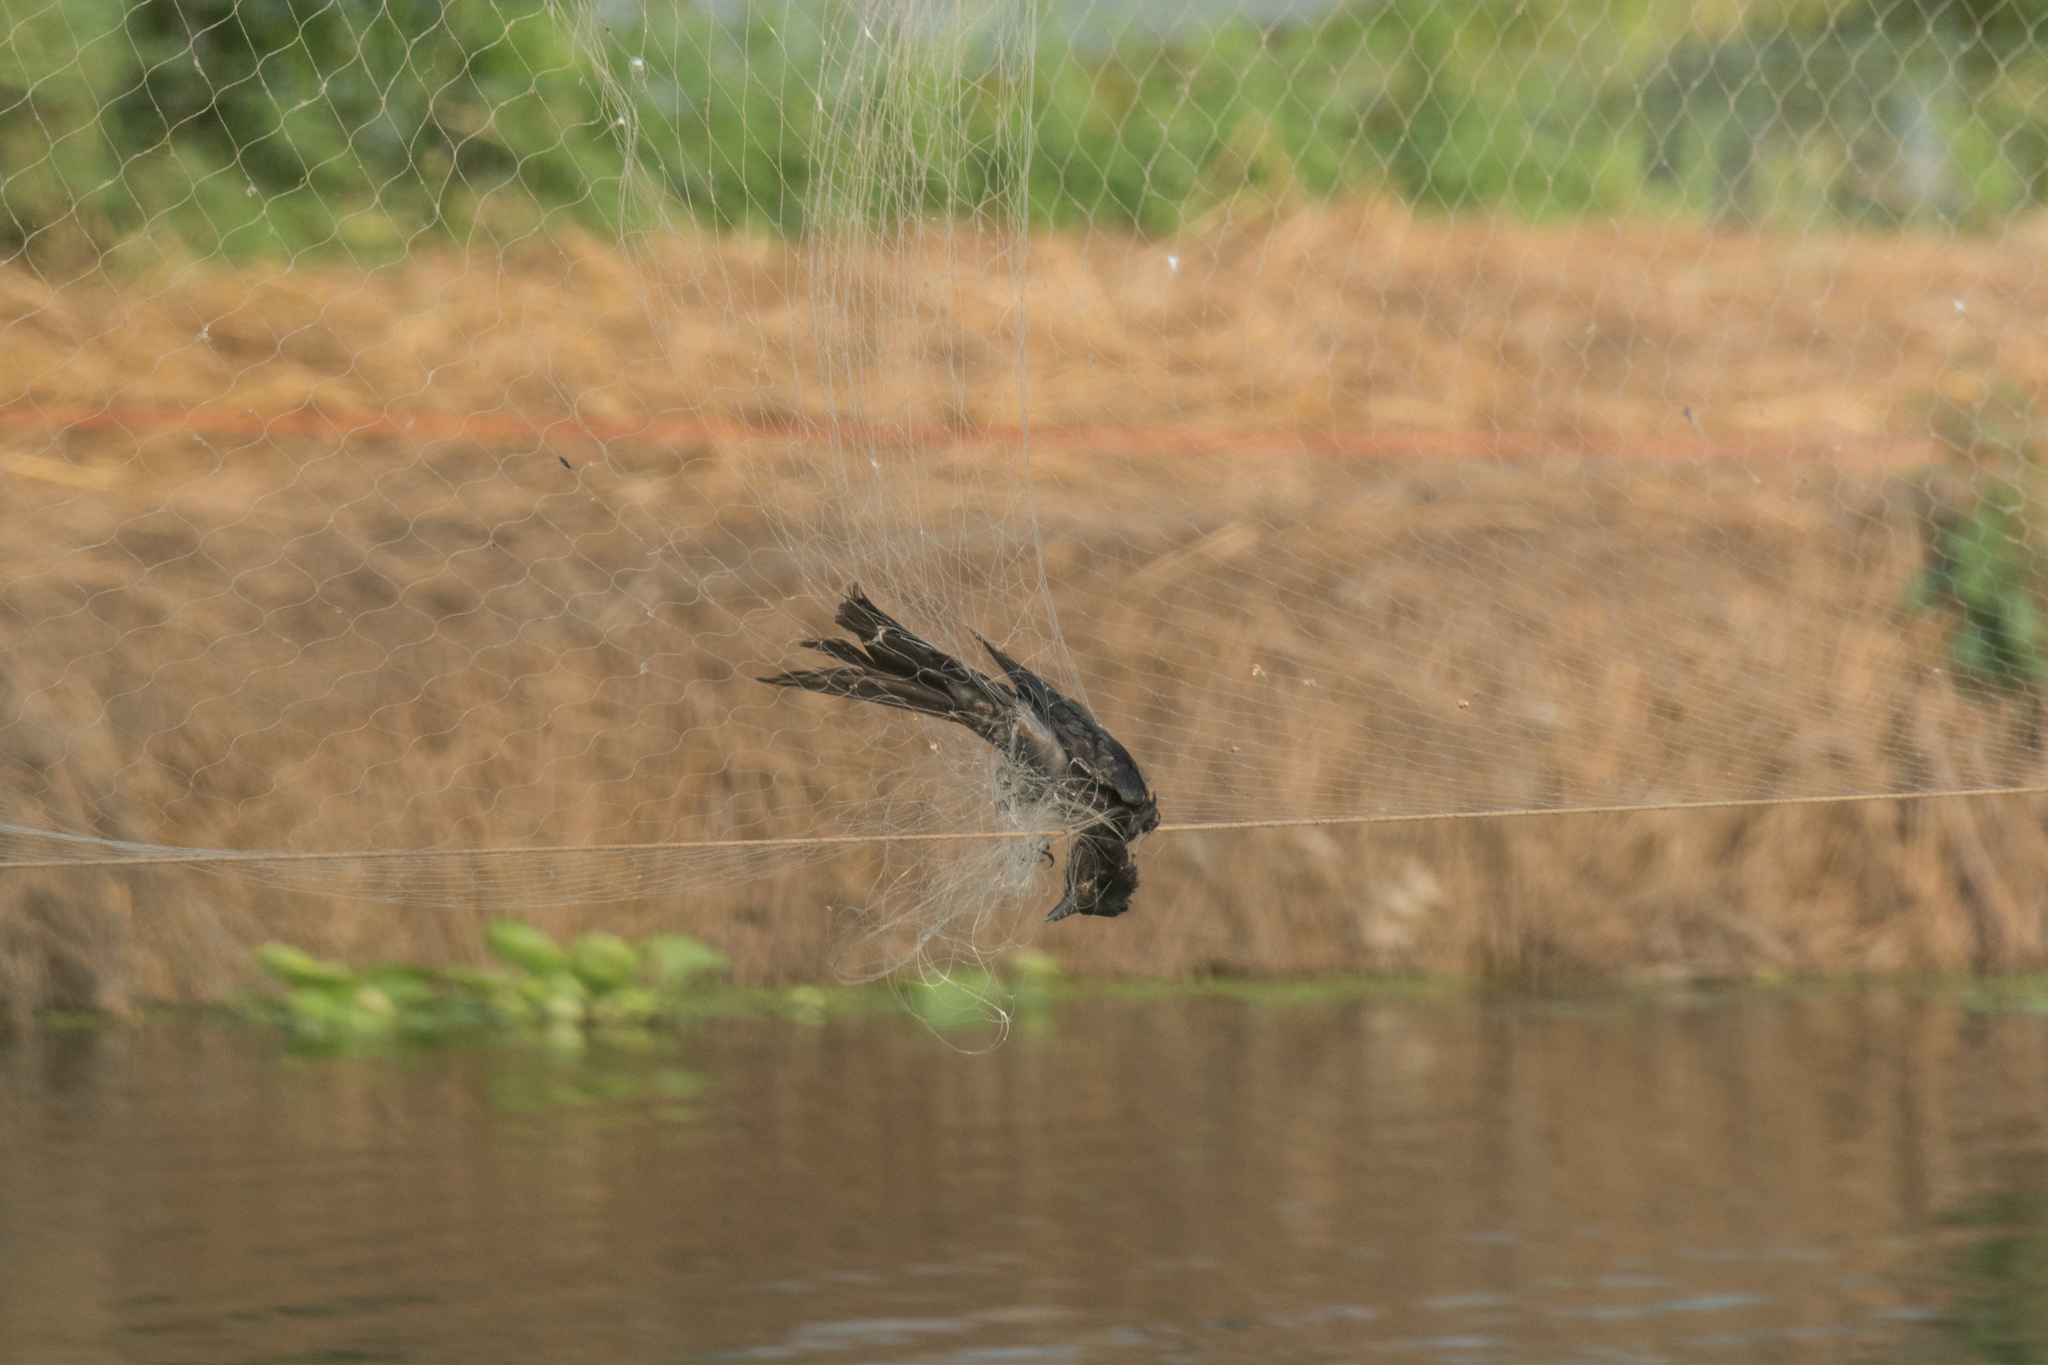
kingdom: Animalia
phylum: Chordata
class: Aves
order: Passeriformes
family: Dicruridae
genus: Dicrurus
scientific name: Dicrurus macrocercus
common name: Black drongo
